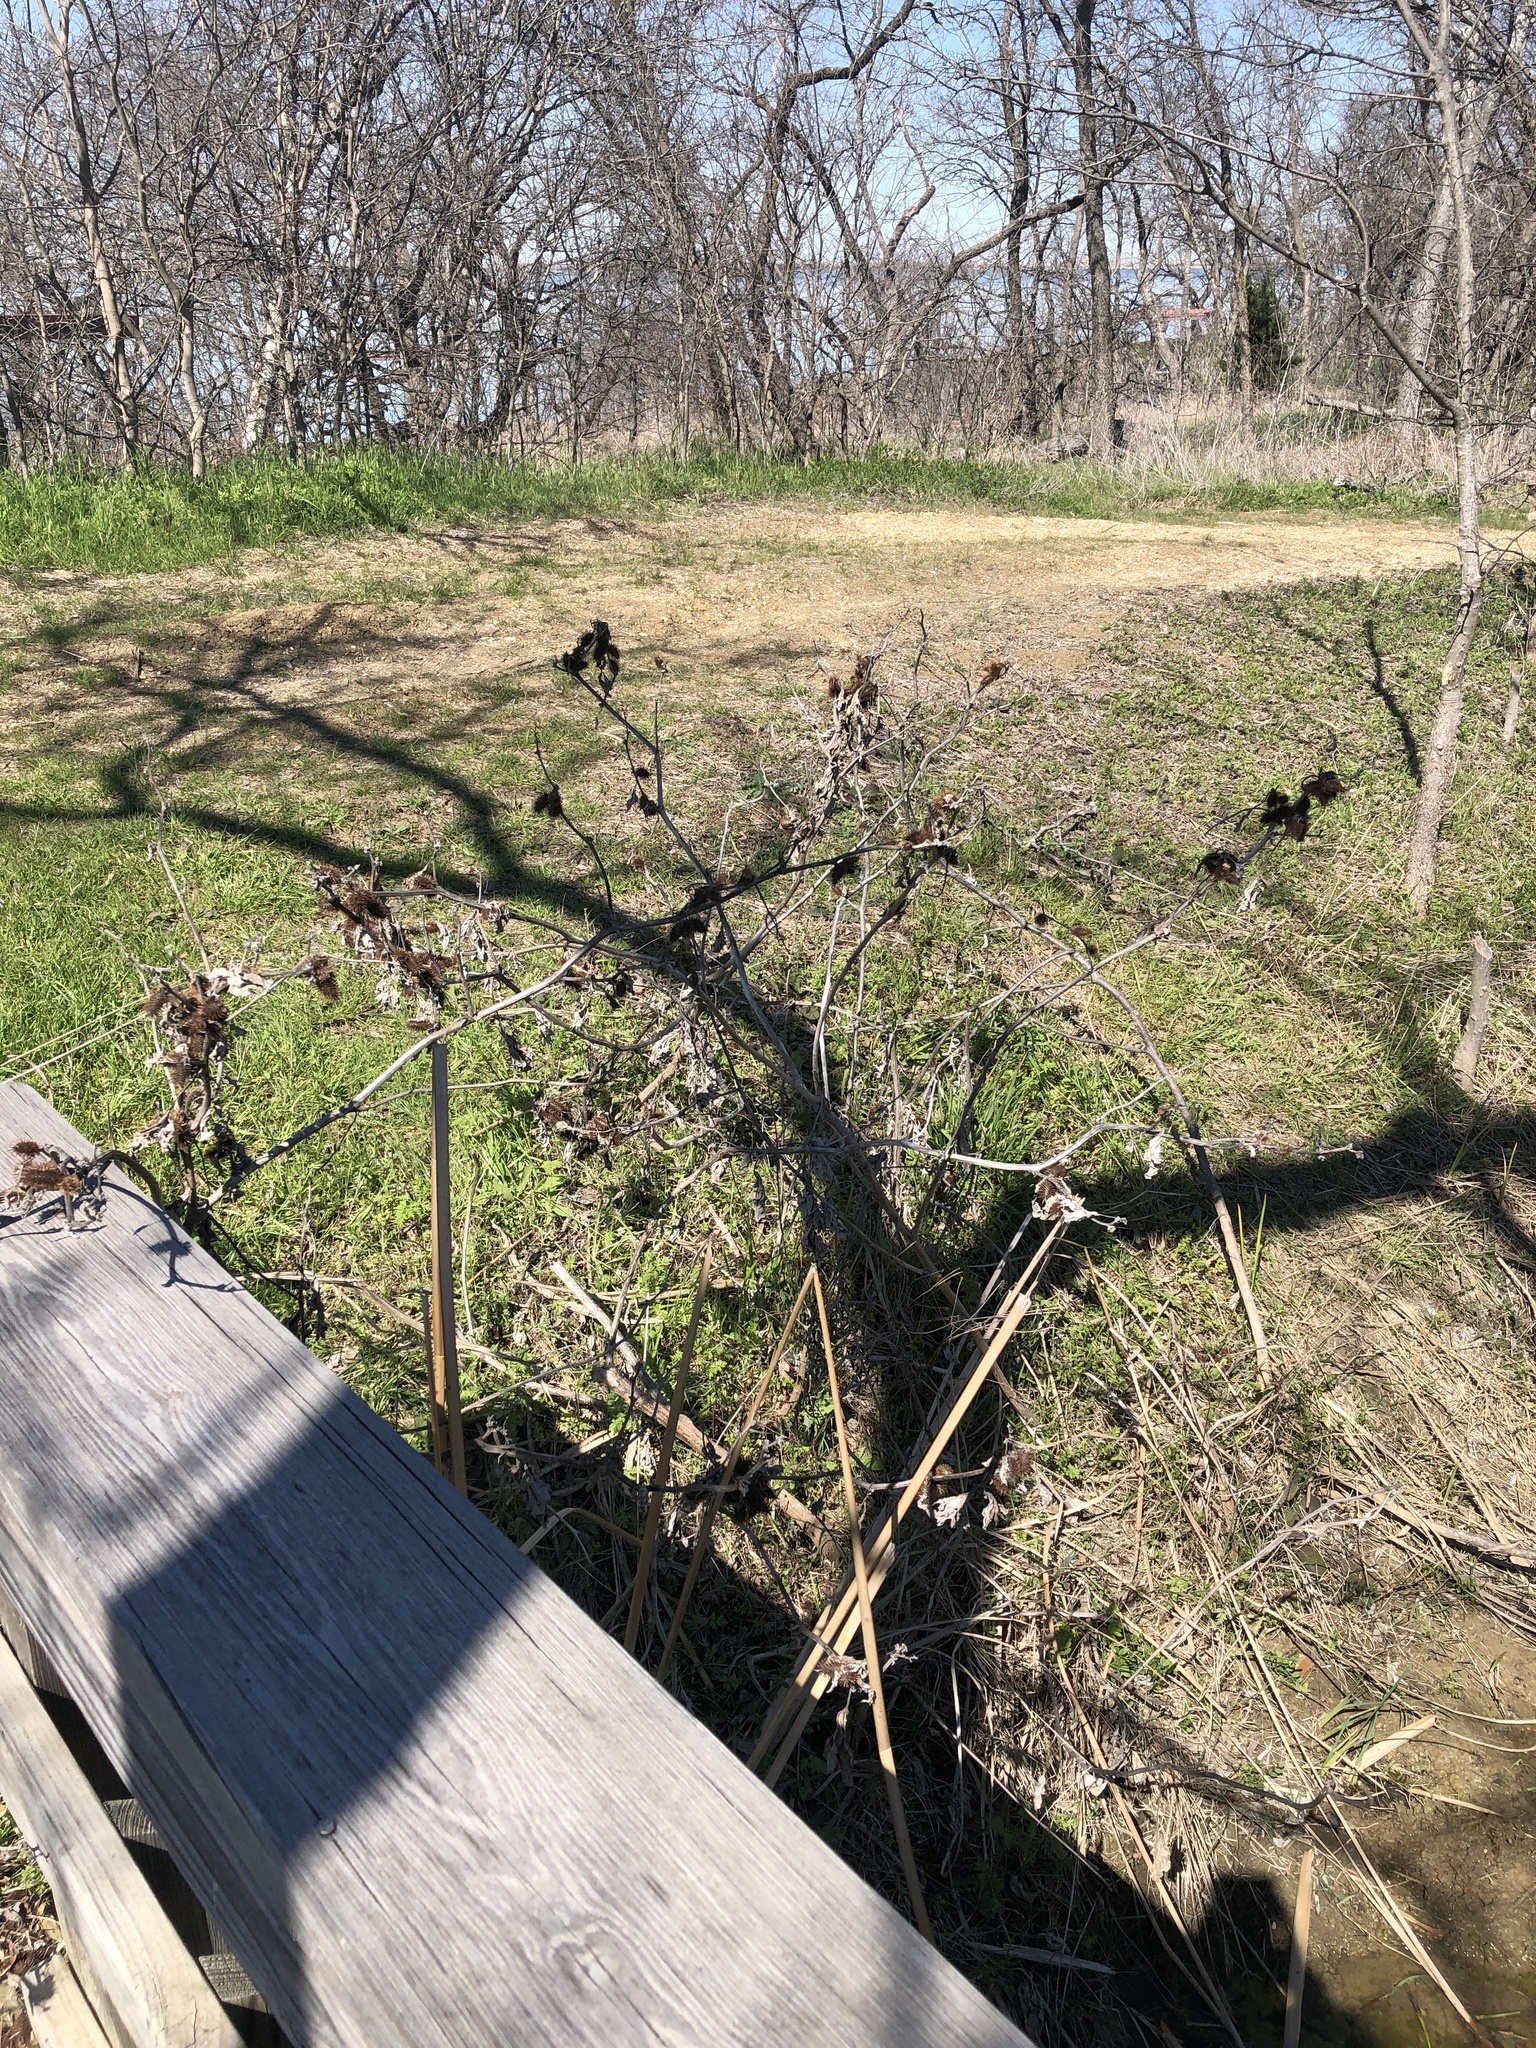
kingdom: Plantae
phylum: Tracheophyta
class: Magnoliopsida
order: Asterales
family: Asteraceae
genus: Xanthium
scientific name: Xanthium strumarium
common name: Rough cocklebur
